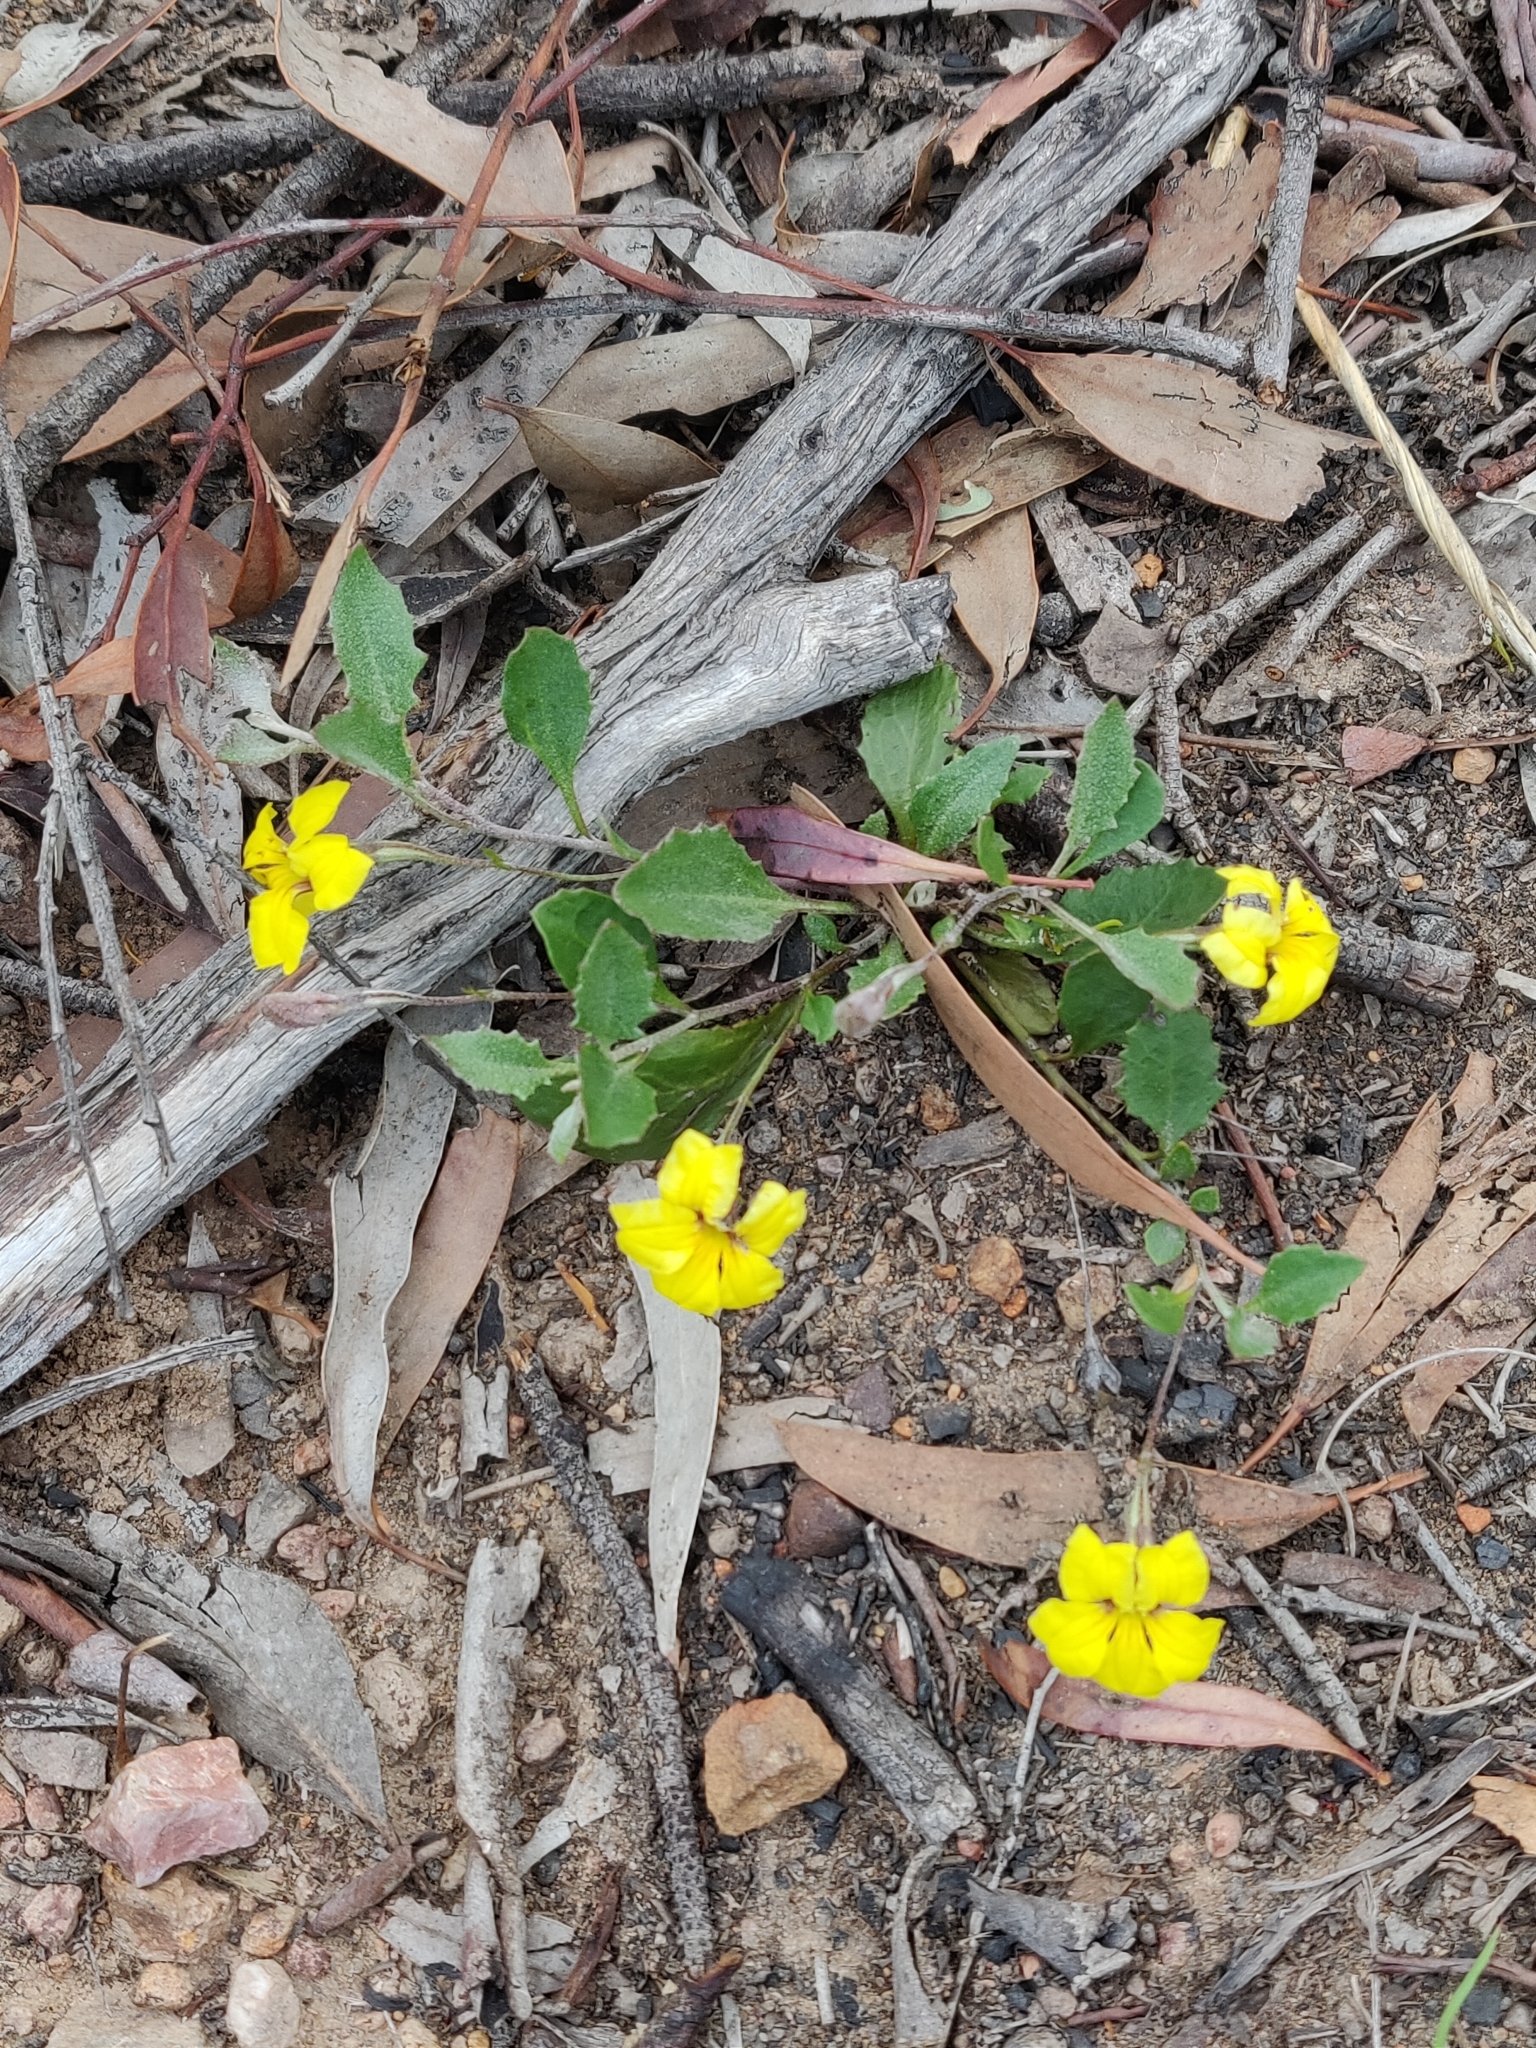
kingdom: Plantae
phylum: Tracheophyta
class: Magnoliopsida
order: Asterales
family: Goodeniaceae
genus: Goodenia
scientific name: Goodenia hederacea
